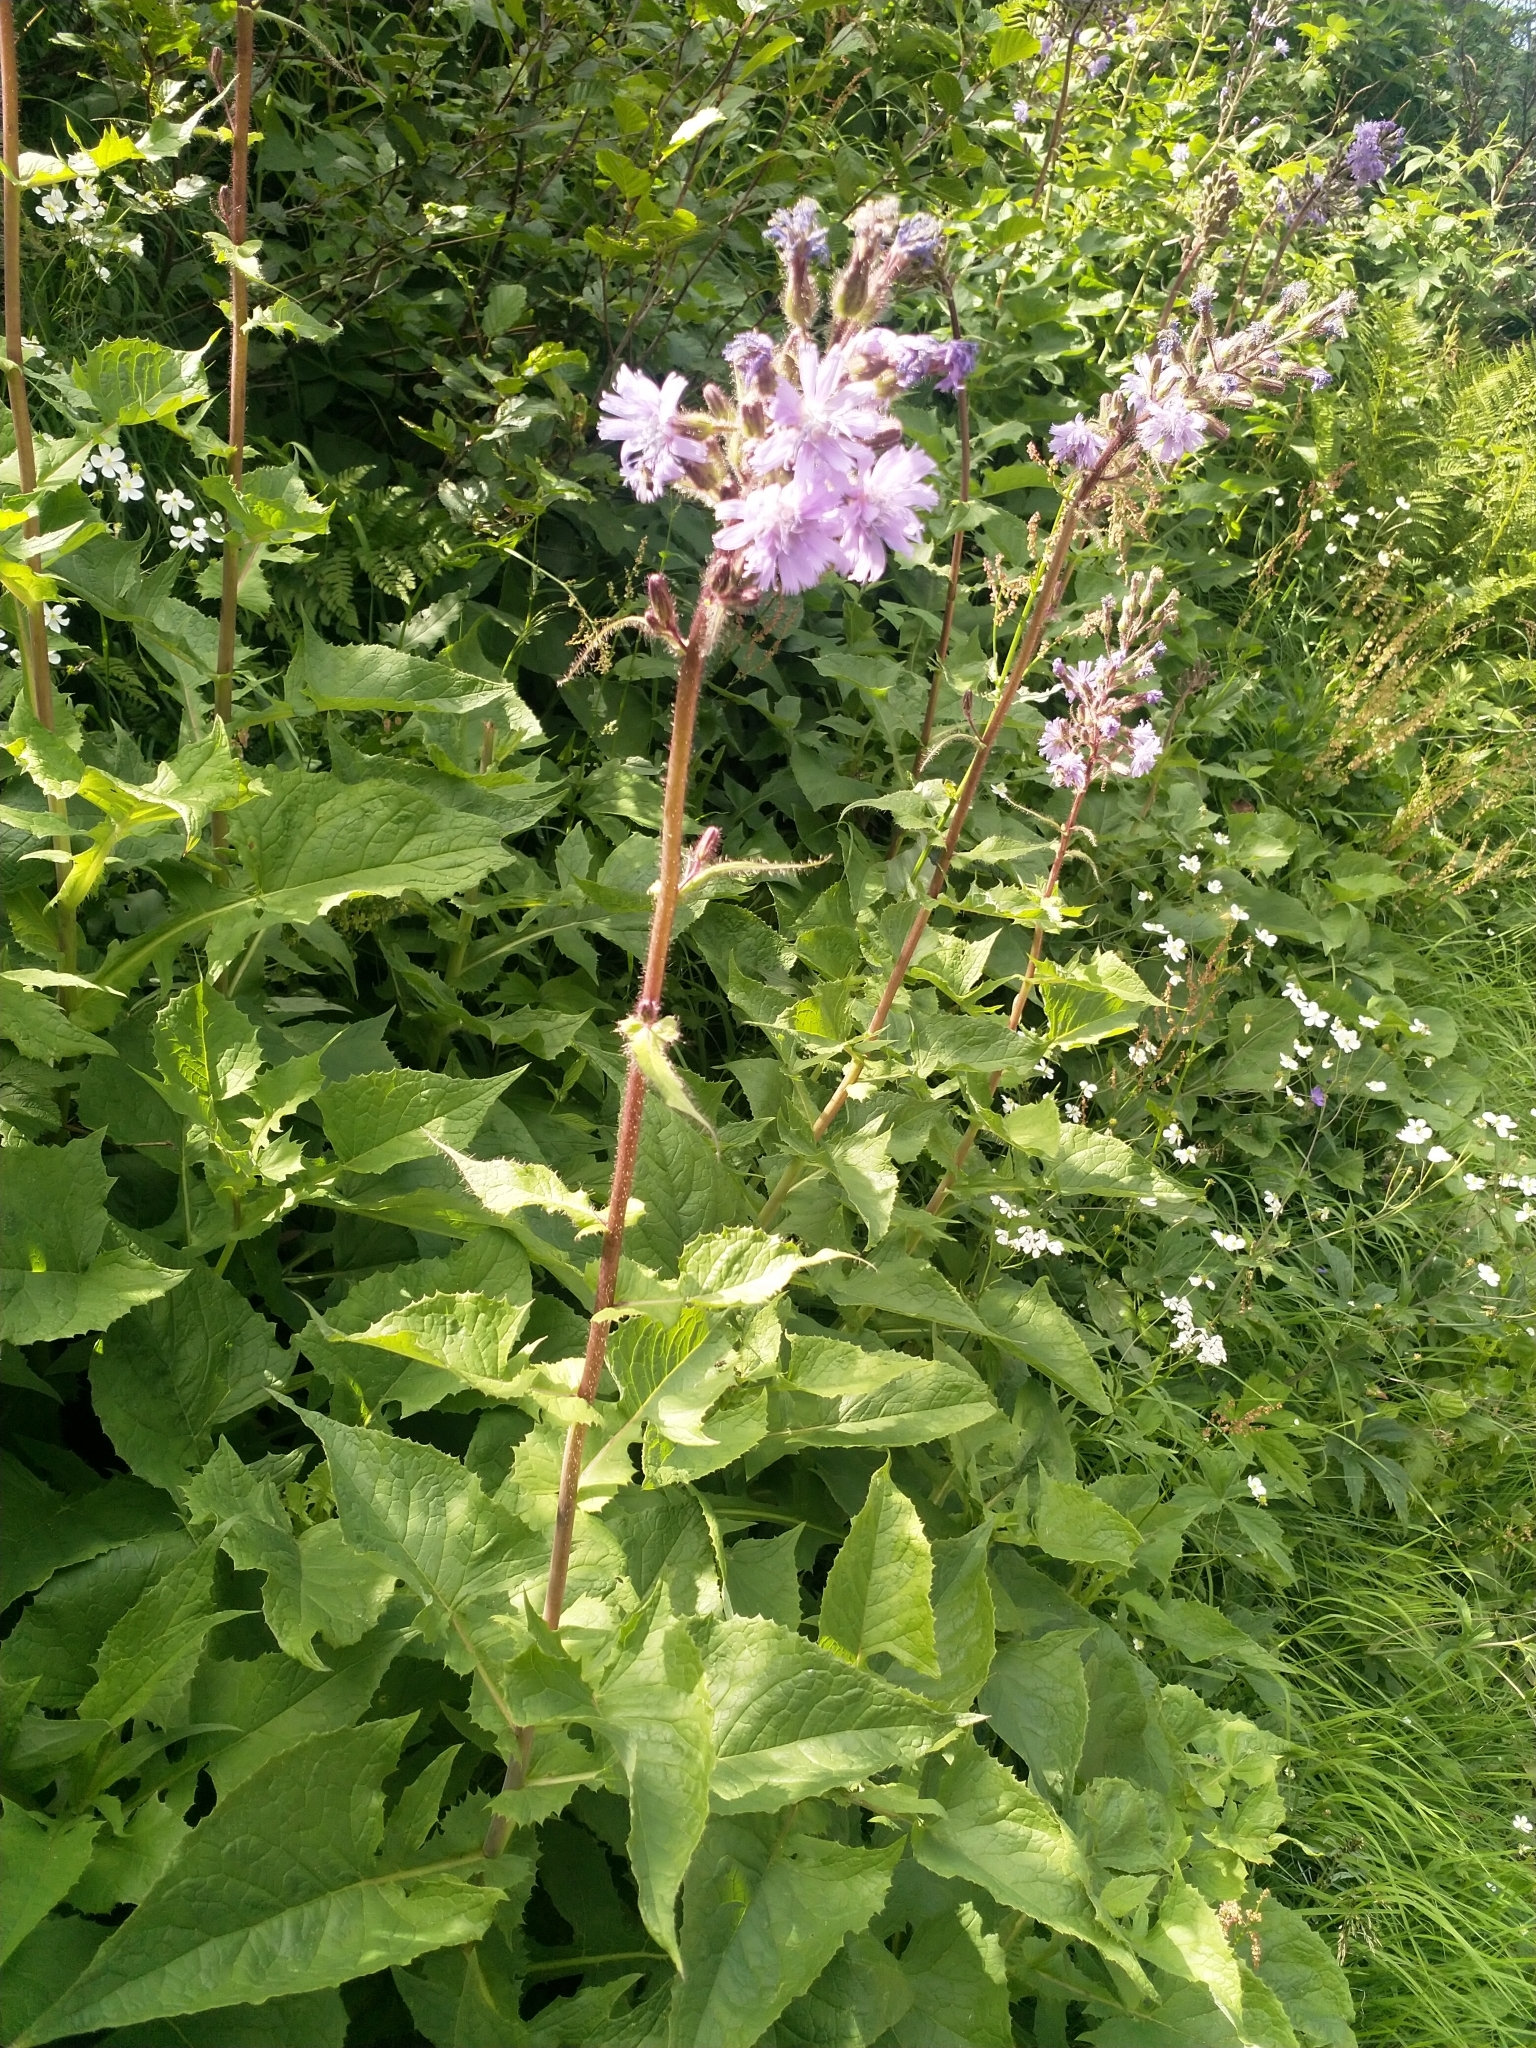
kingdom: Plantae
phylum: Tracheophyta
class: Magnoliopsida
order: Asterales
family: Asteraceae
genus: Cicerbita
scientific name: Cicerbita alpina
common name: Alpine blue-sow-thistle
